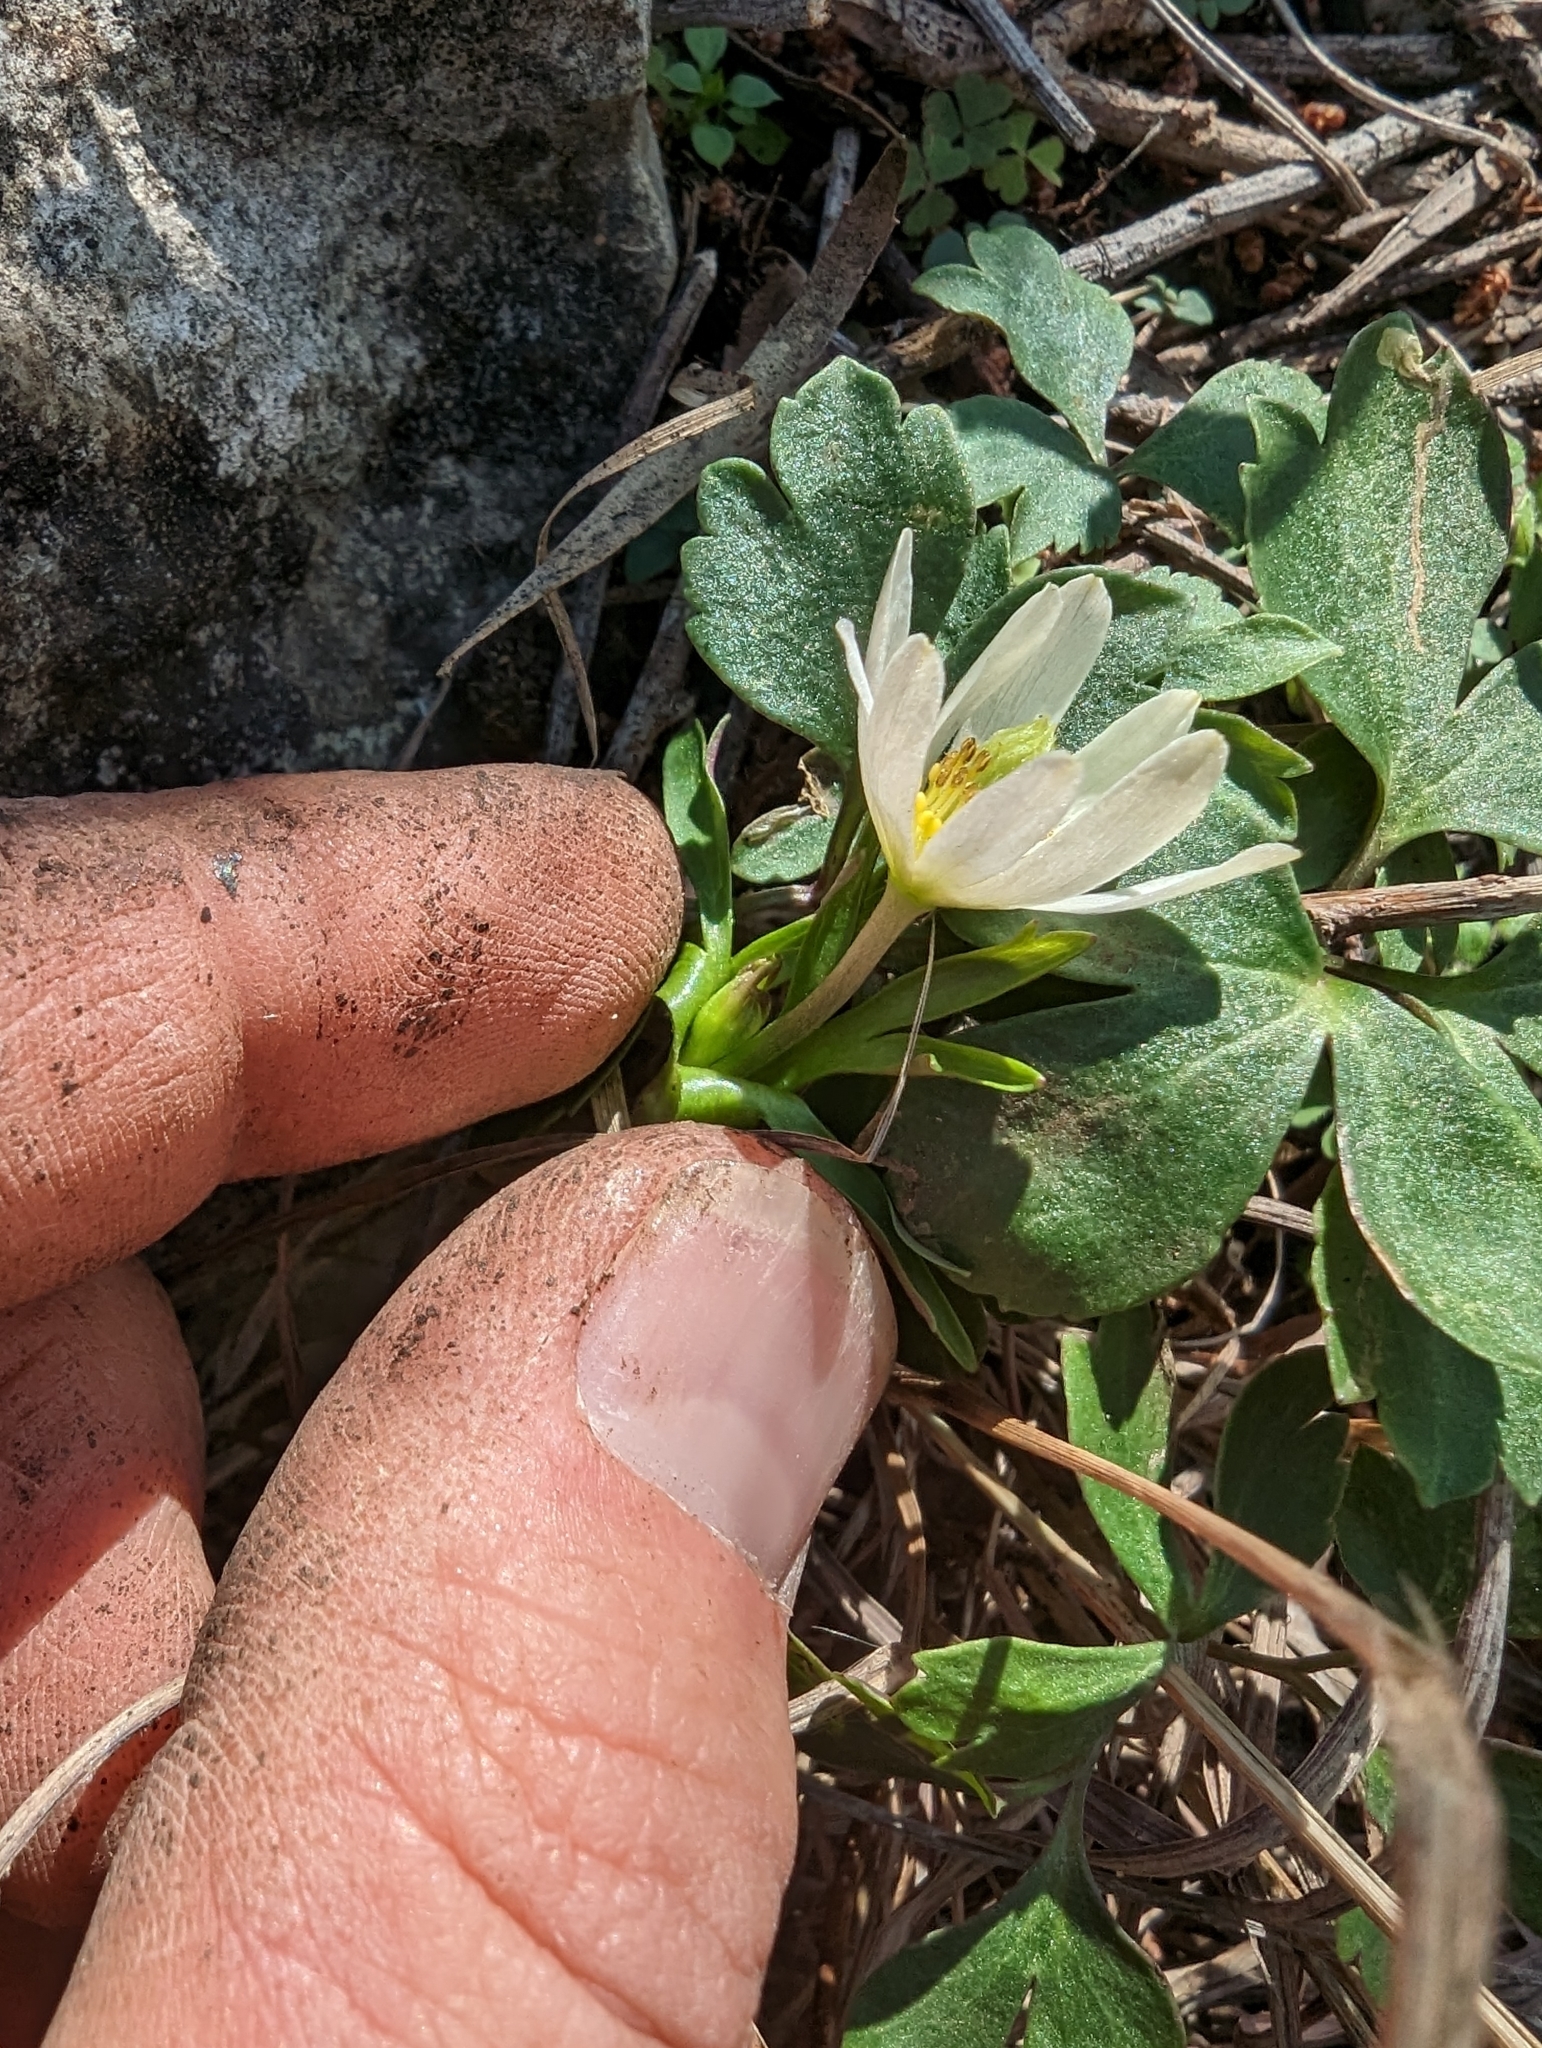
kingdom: Plantae
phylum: Tracheophyta
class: Magnoliopsida
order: Ranunculales
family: Ranunculaceae
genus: Anemone
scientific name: Anemone edwardsiana
